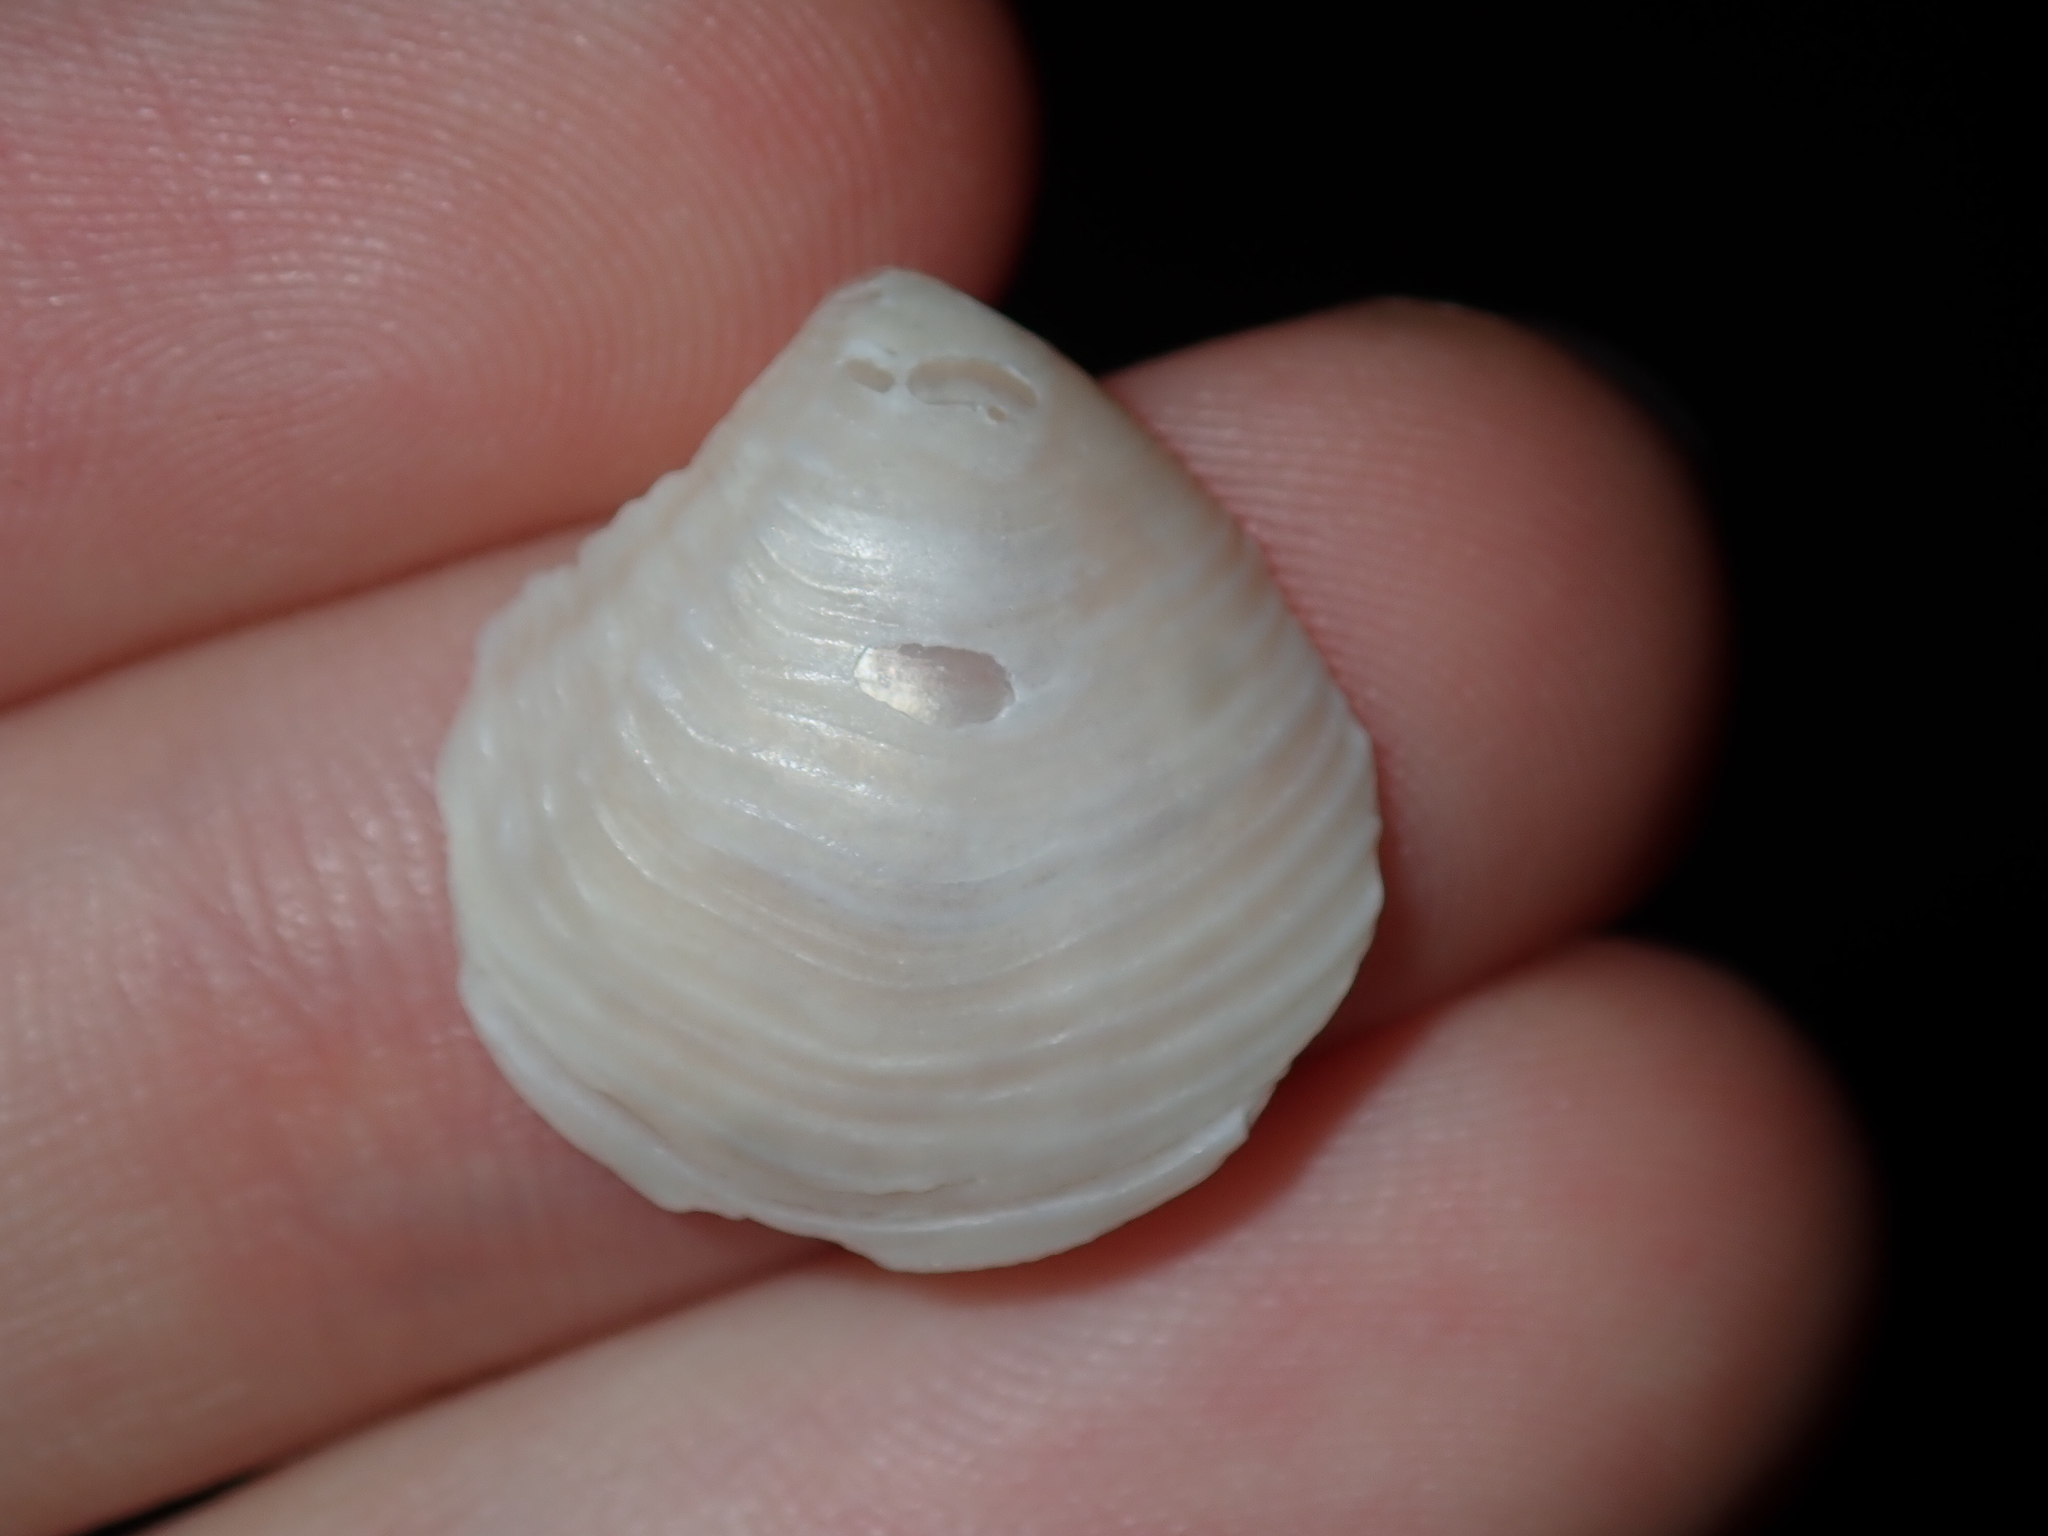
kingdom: Animalia
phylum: Mollusca
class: Bivalvia
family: Myochamidae
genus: Myadora
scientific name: Myadora brevis
